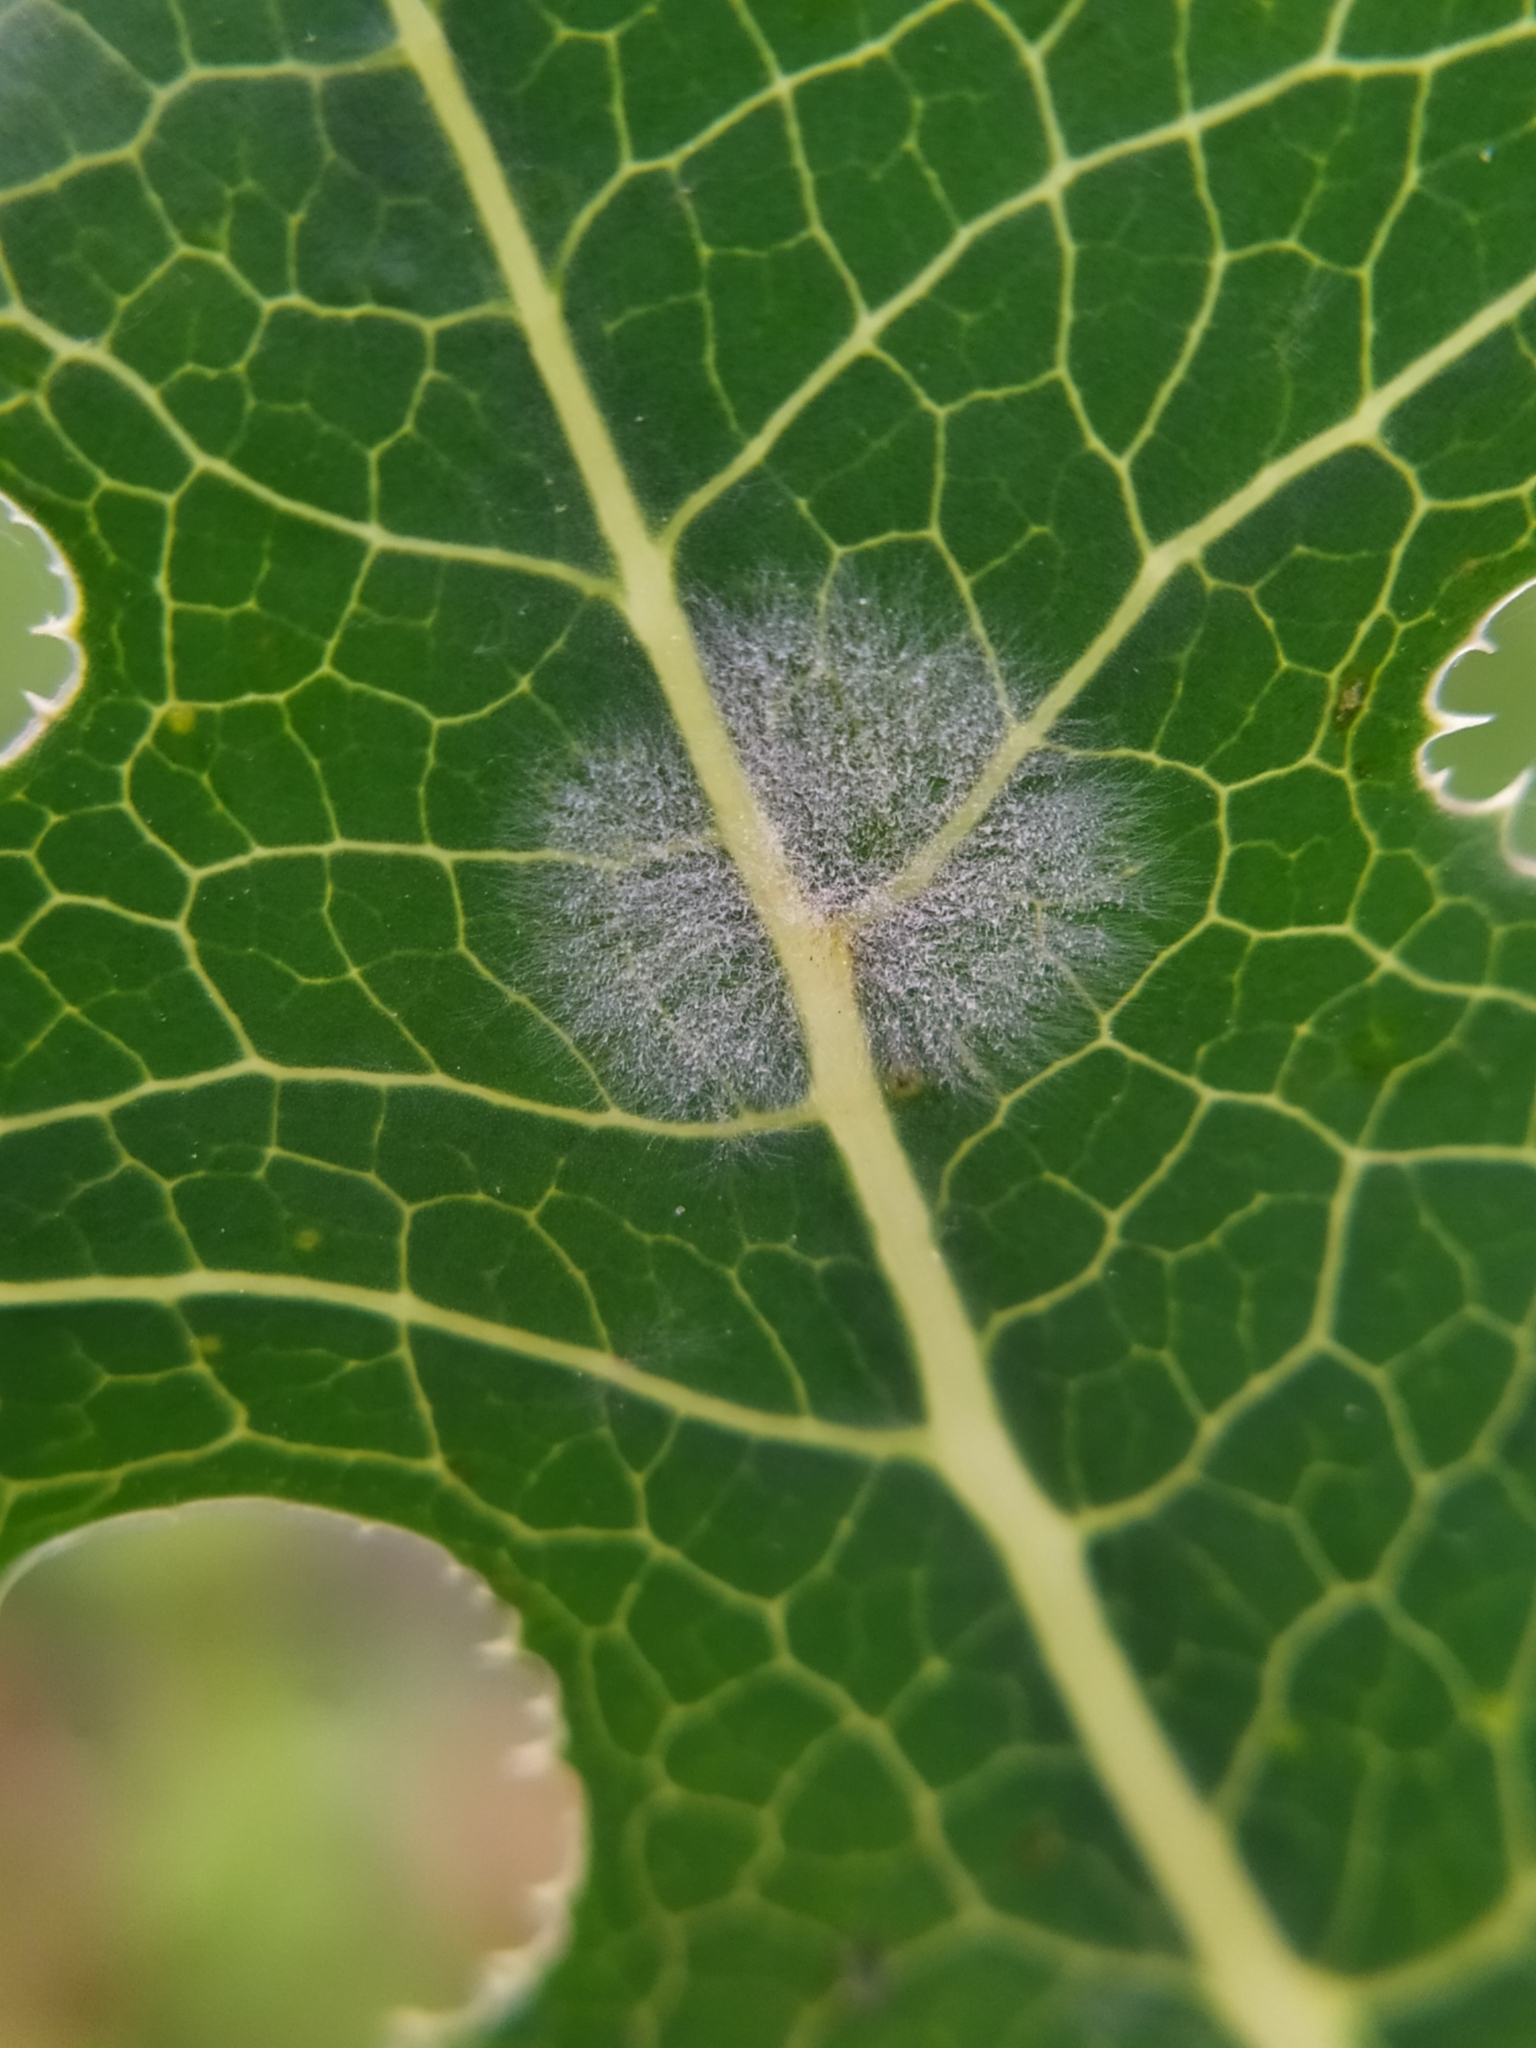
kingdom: Fungi
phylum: Ascomycota
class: Leotiomycetes
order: Helotiales
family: Erysiphaceae
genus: Golovinomyces
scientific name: Golovinomyces bolayi
